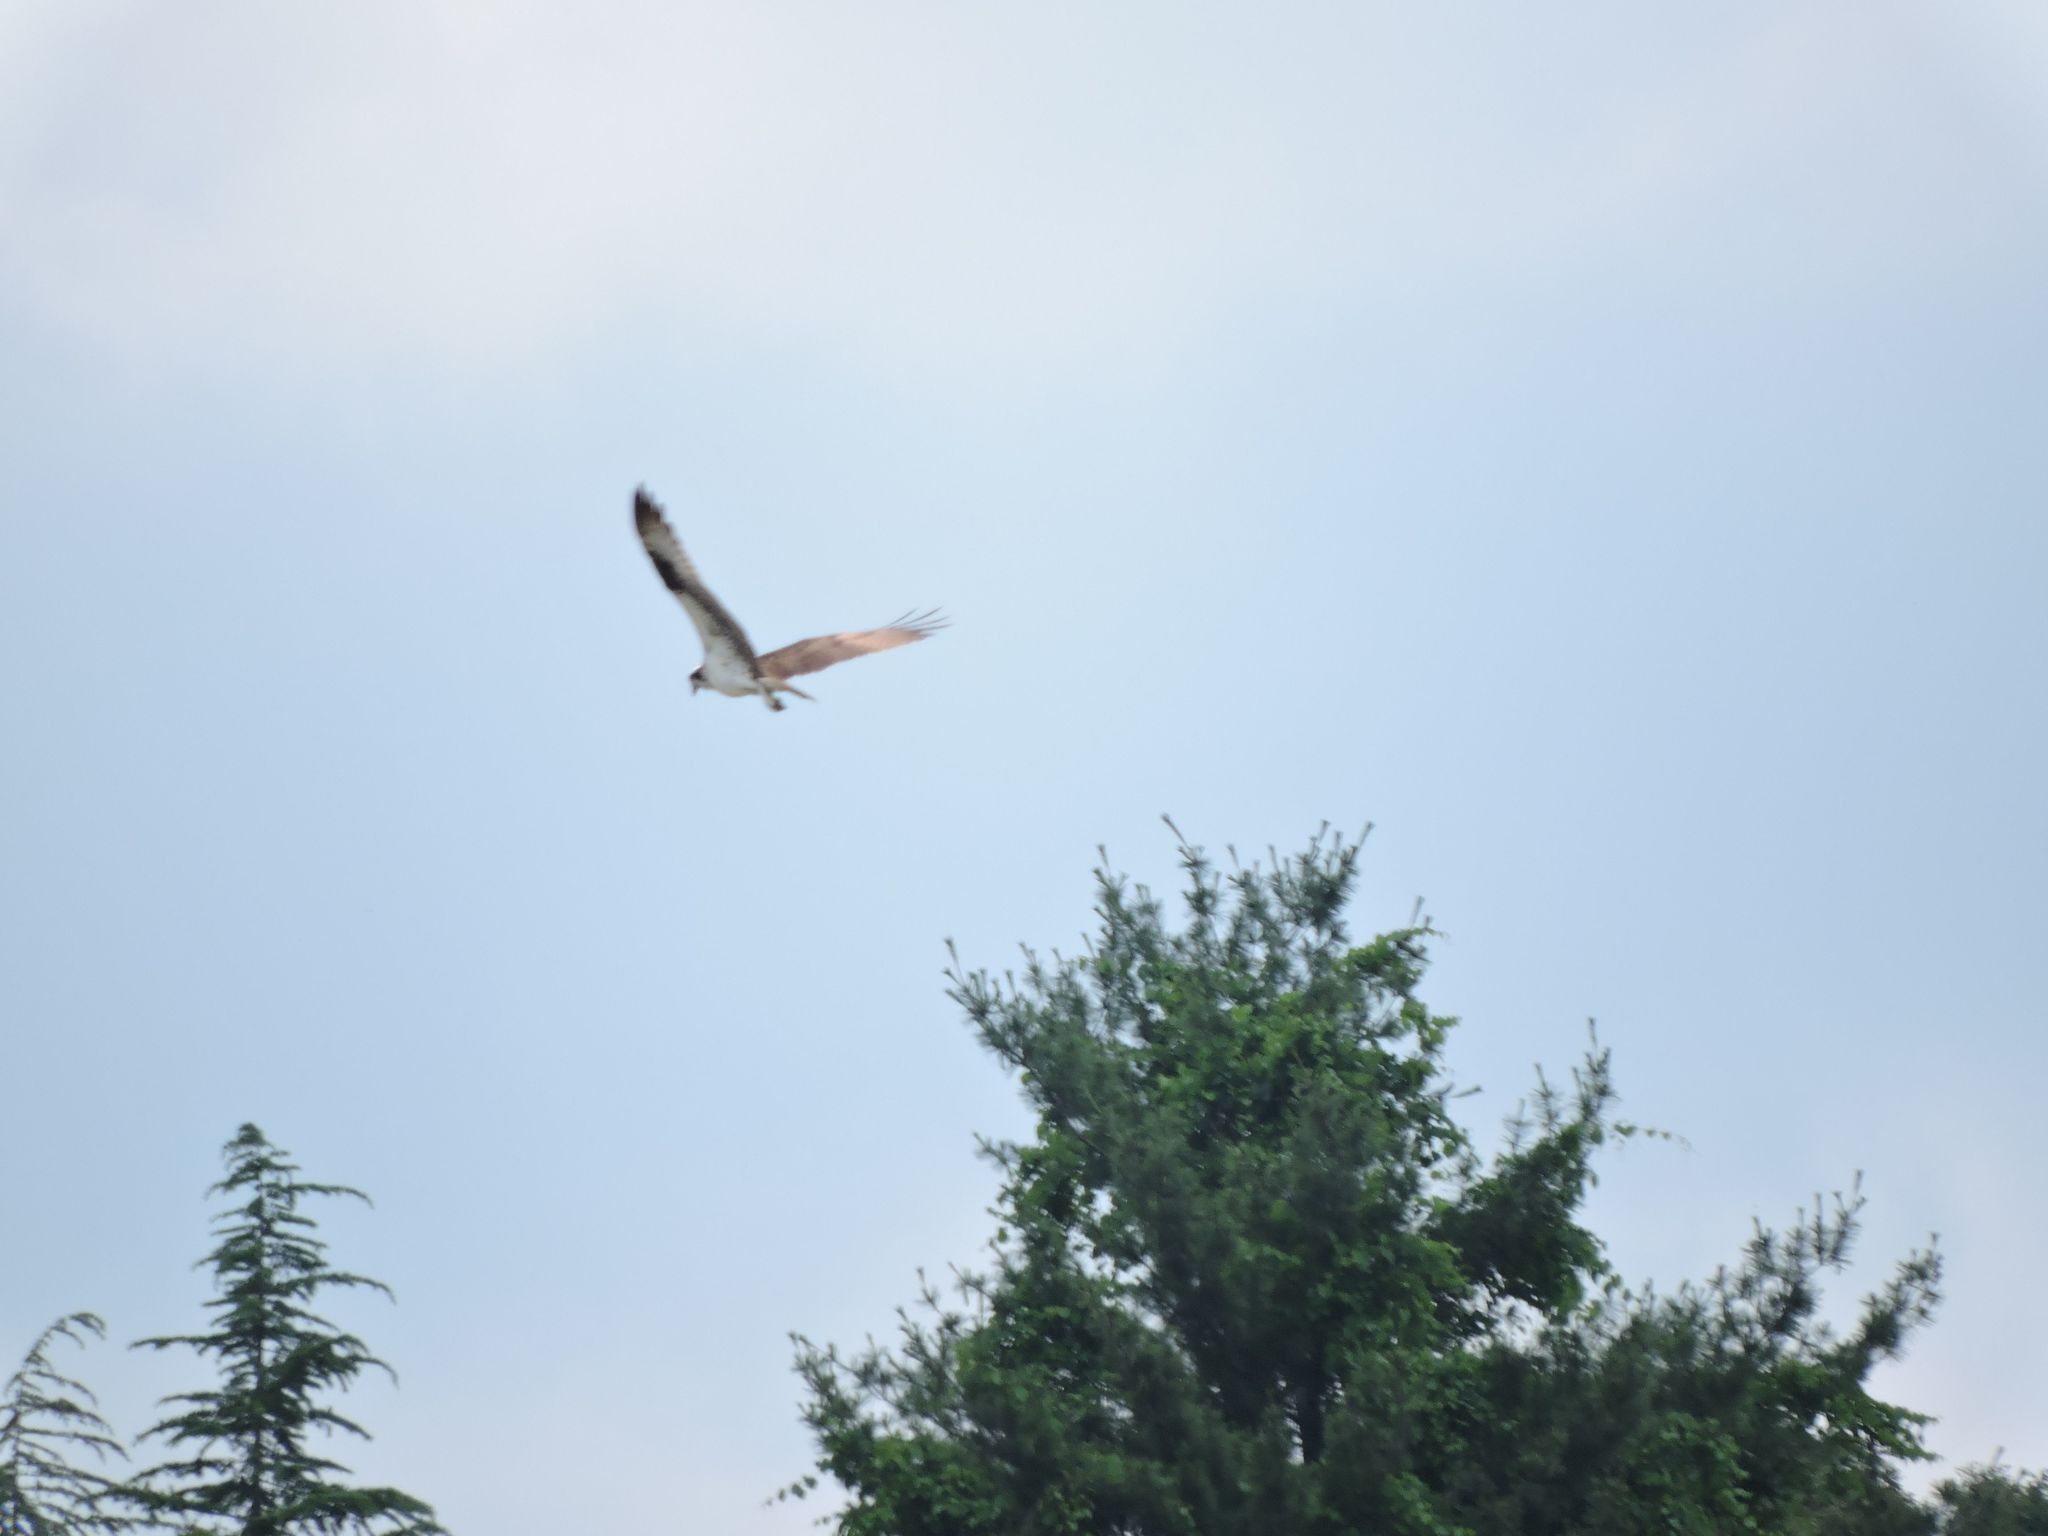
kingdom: Animalia
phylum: Chordata
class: Aves
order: Accipitriformes
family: Pandionidae
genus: Pandion
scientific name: Pandion haliaetus
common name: Osprey
